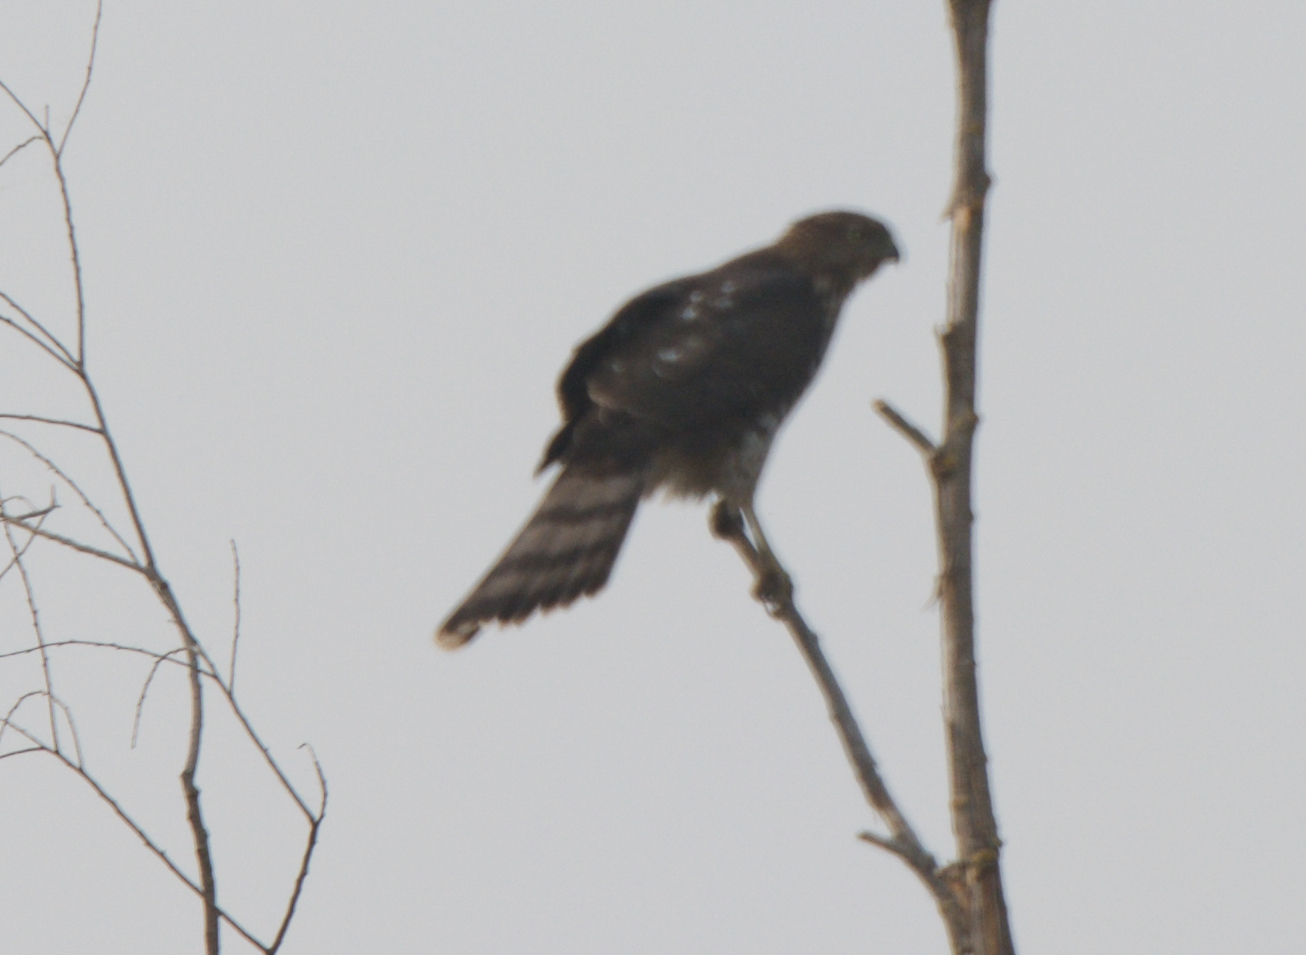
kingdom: Animalia
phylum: Chordata
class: Aves
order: Accipitriformes
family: Accipitridae
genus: Accipiter
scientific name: Accipiter cooperii
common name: Cooper's hawk
